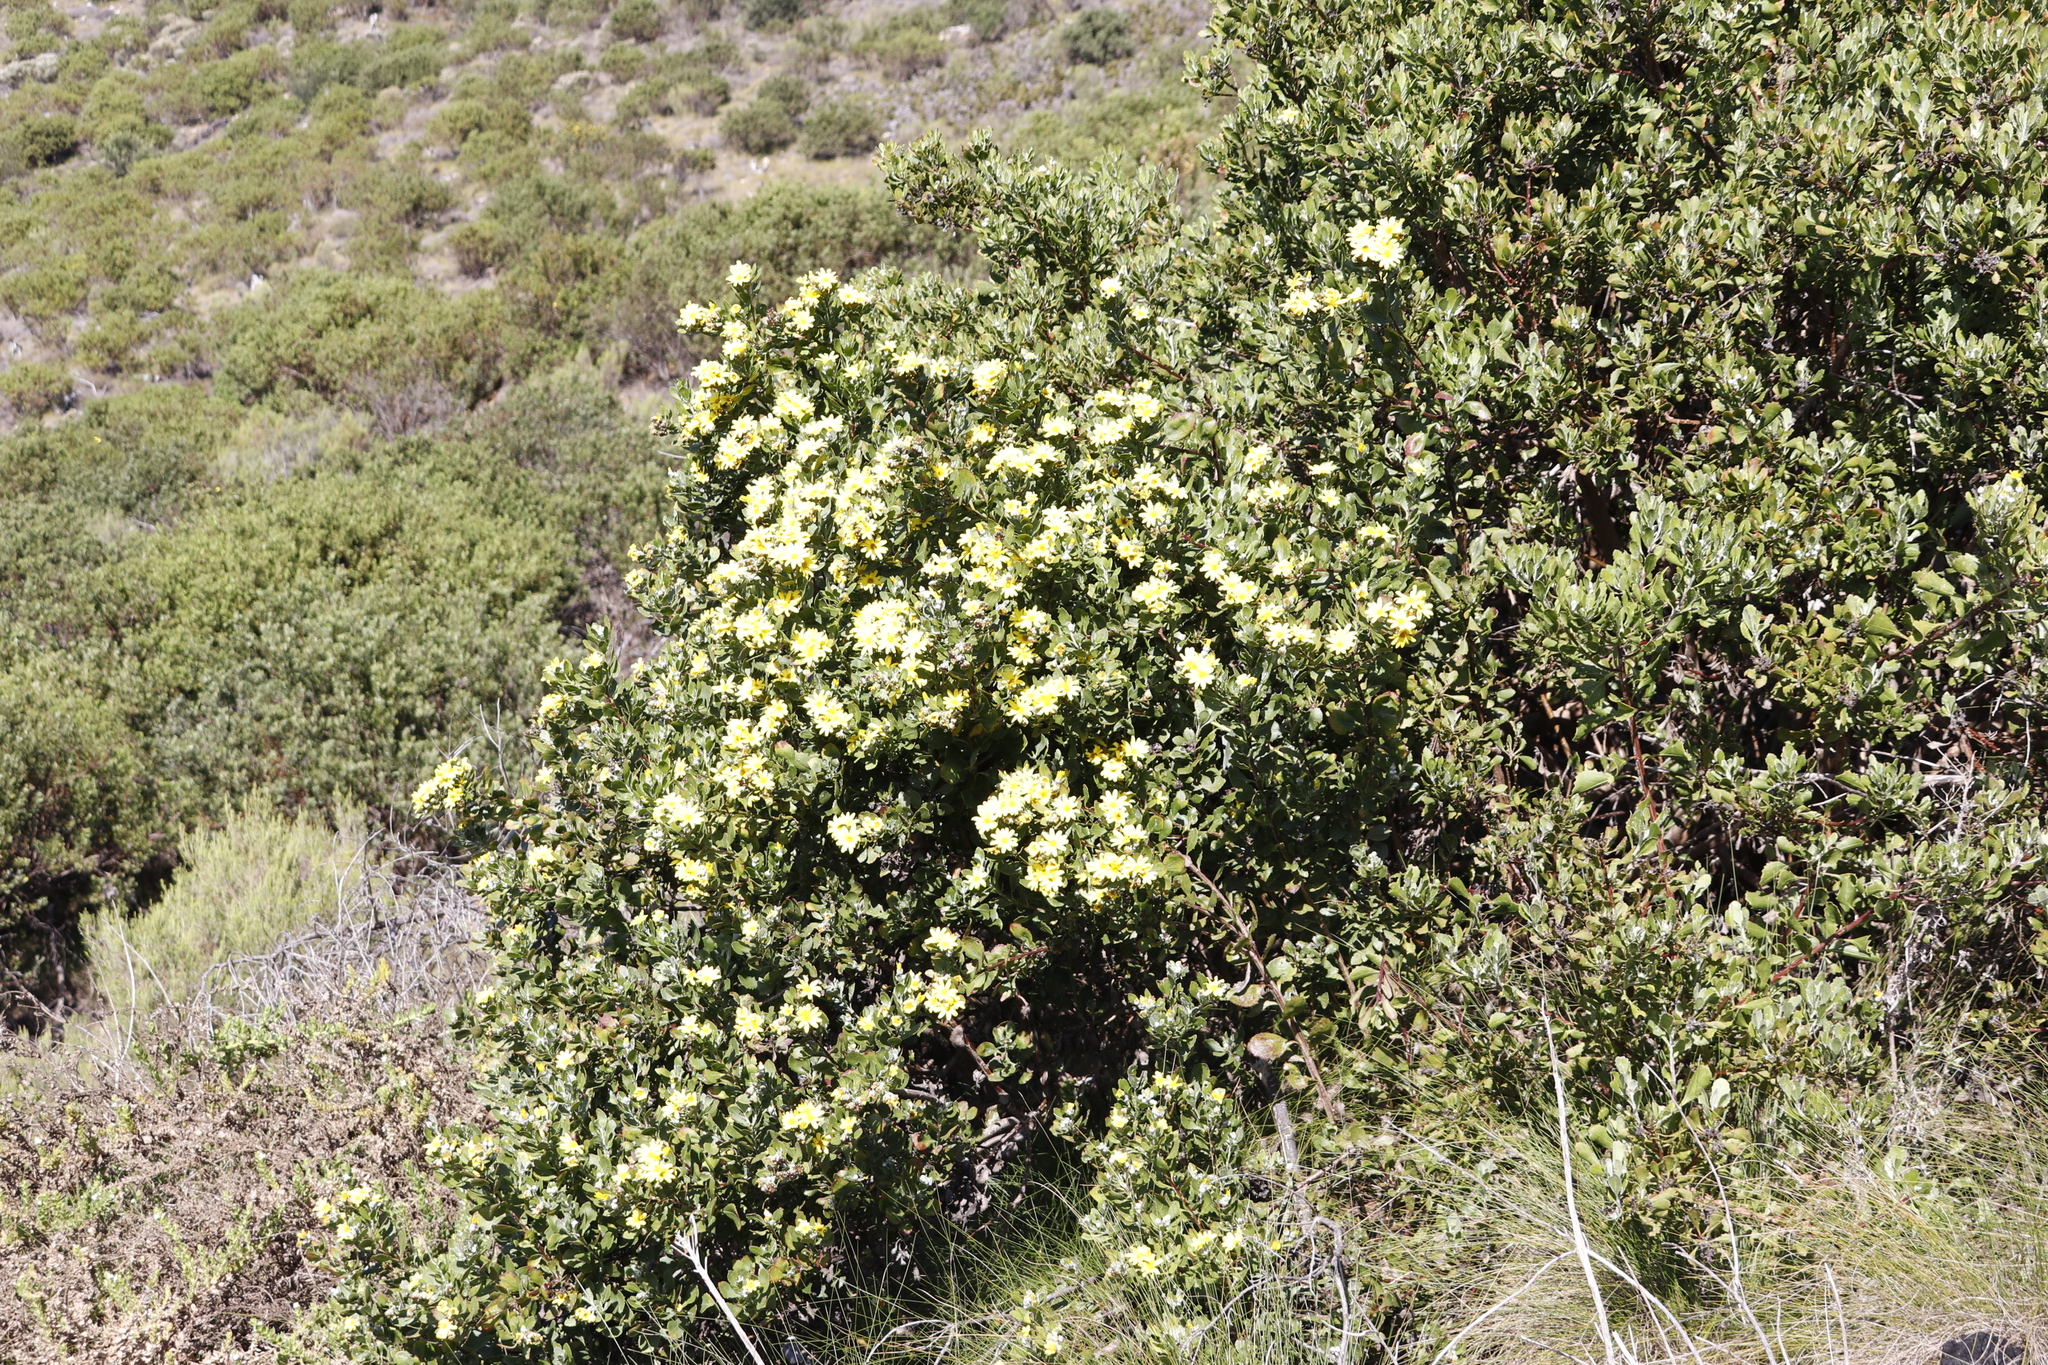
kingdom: Plantae
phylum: Tracheophyta
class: Magnoliopsida
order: Asterales
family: Asteraceae
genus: Osteospermum
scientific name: Osteospermum moniliferum
